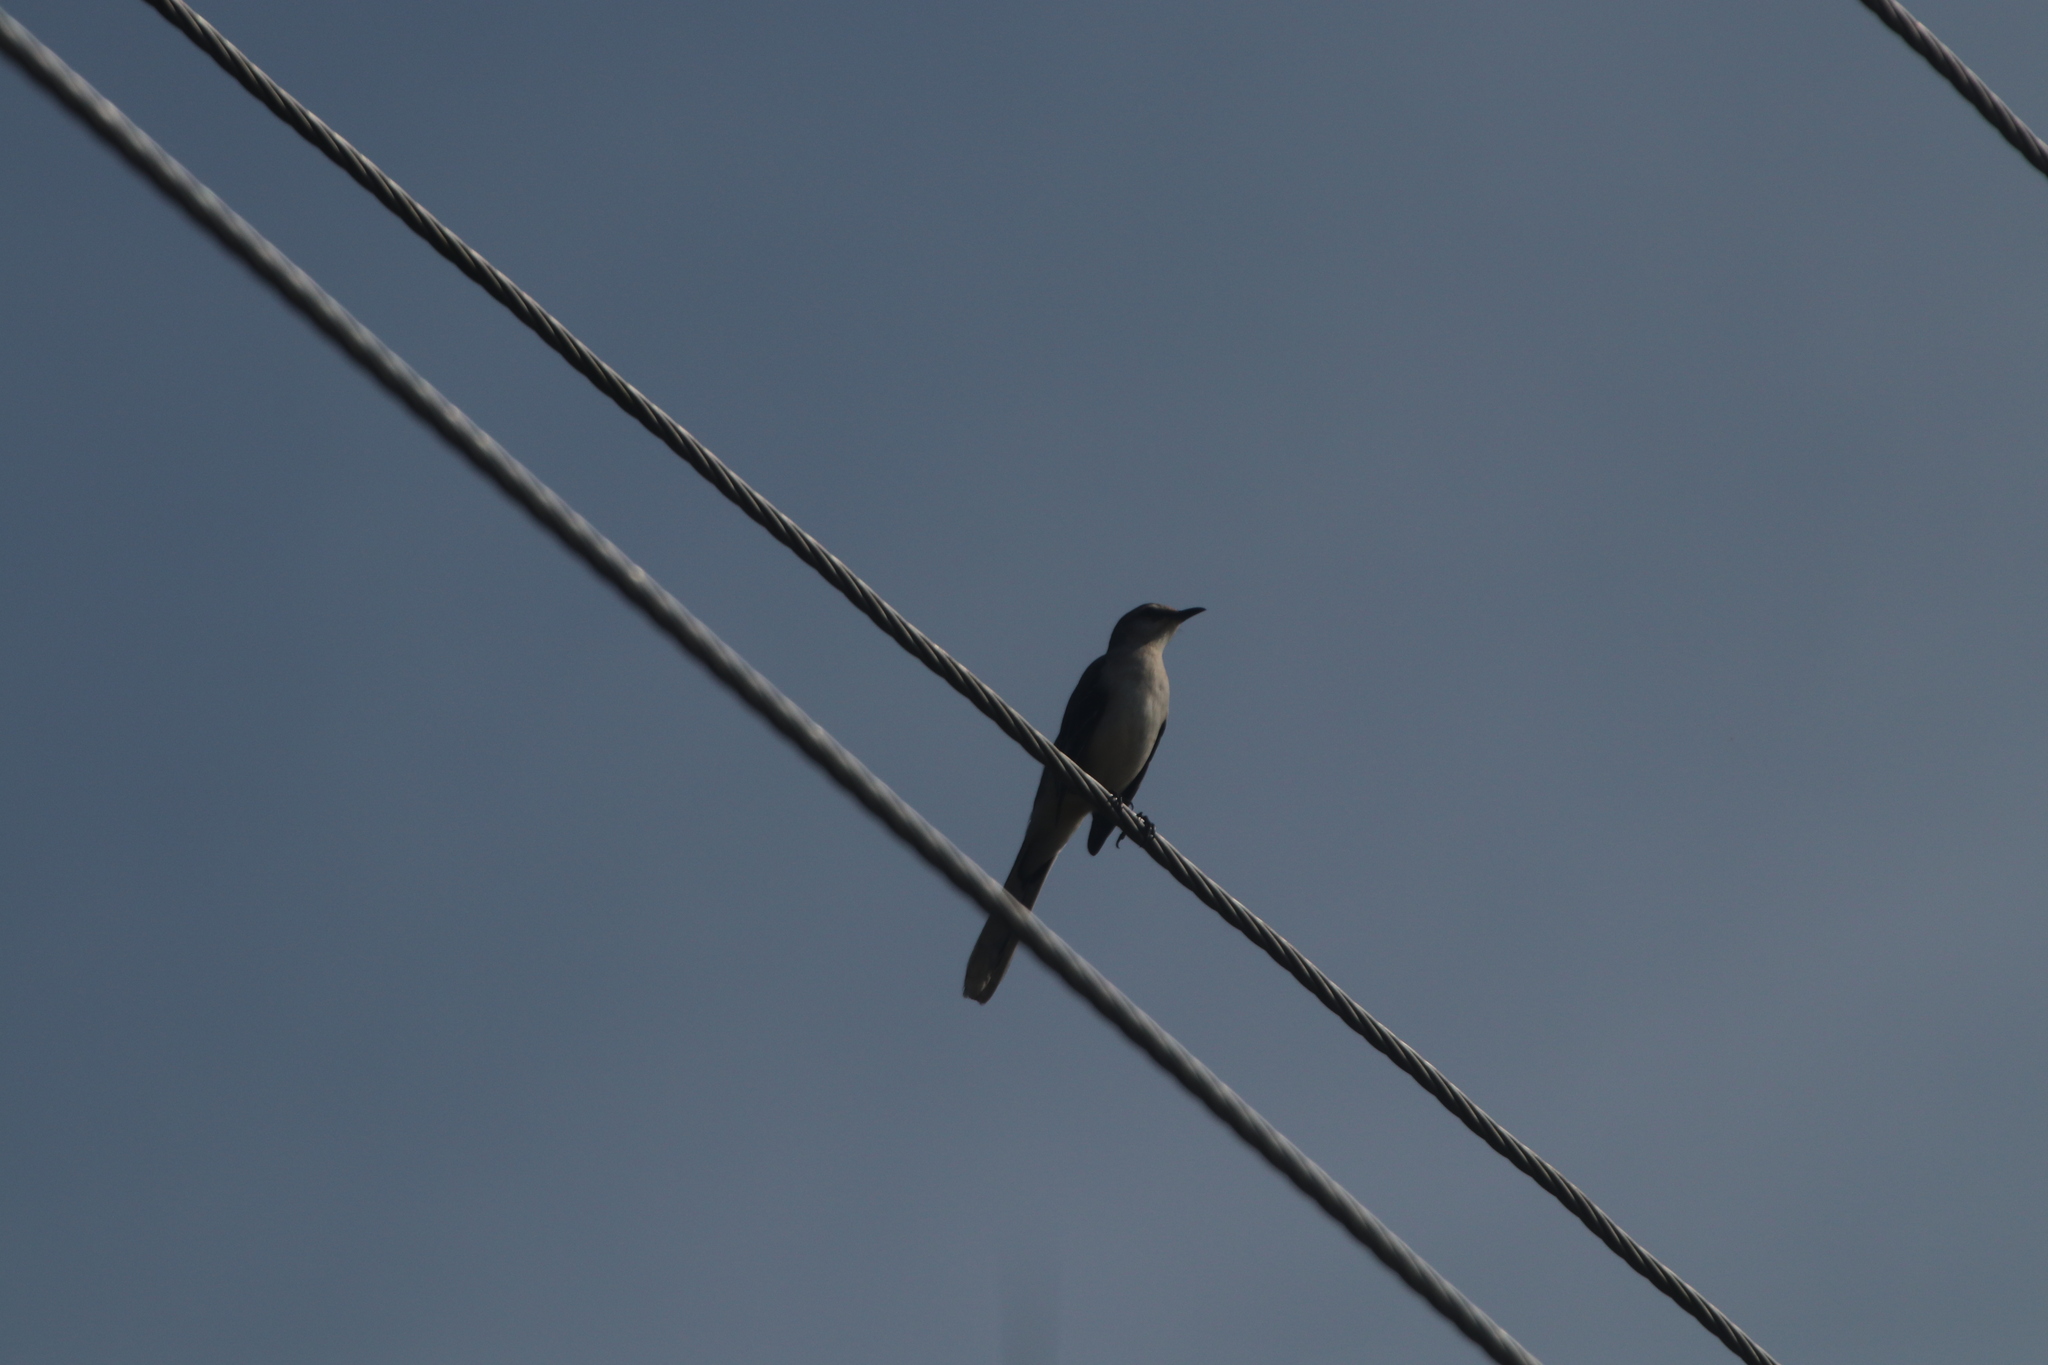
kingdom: Animalia
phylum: Chordata
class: Aves
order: Passeriformes
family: Mimidae
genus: Mimus
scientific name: Mimus gilvus
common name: Tropical mockingbird
